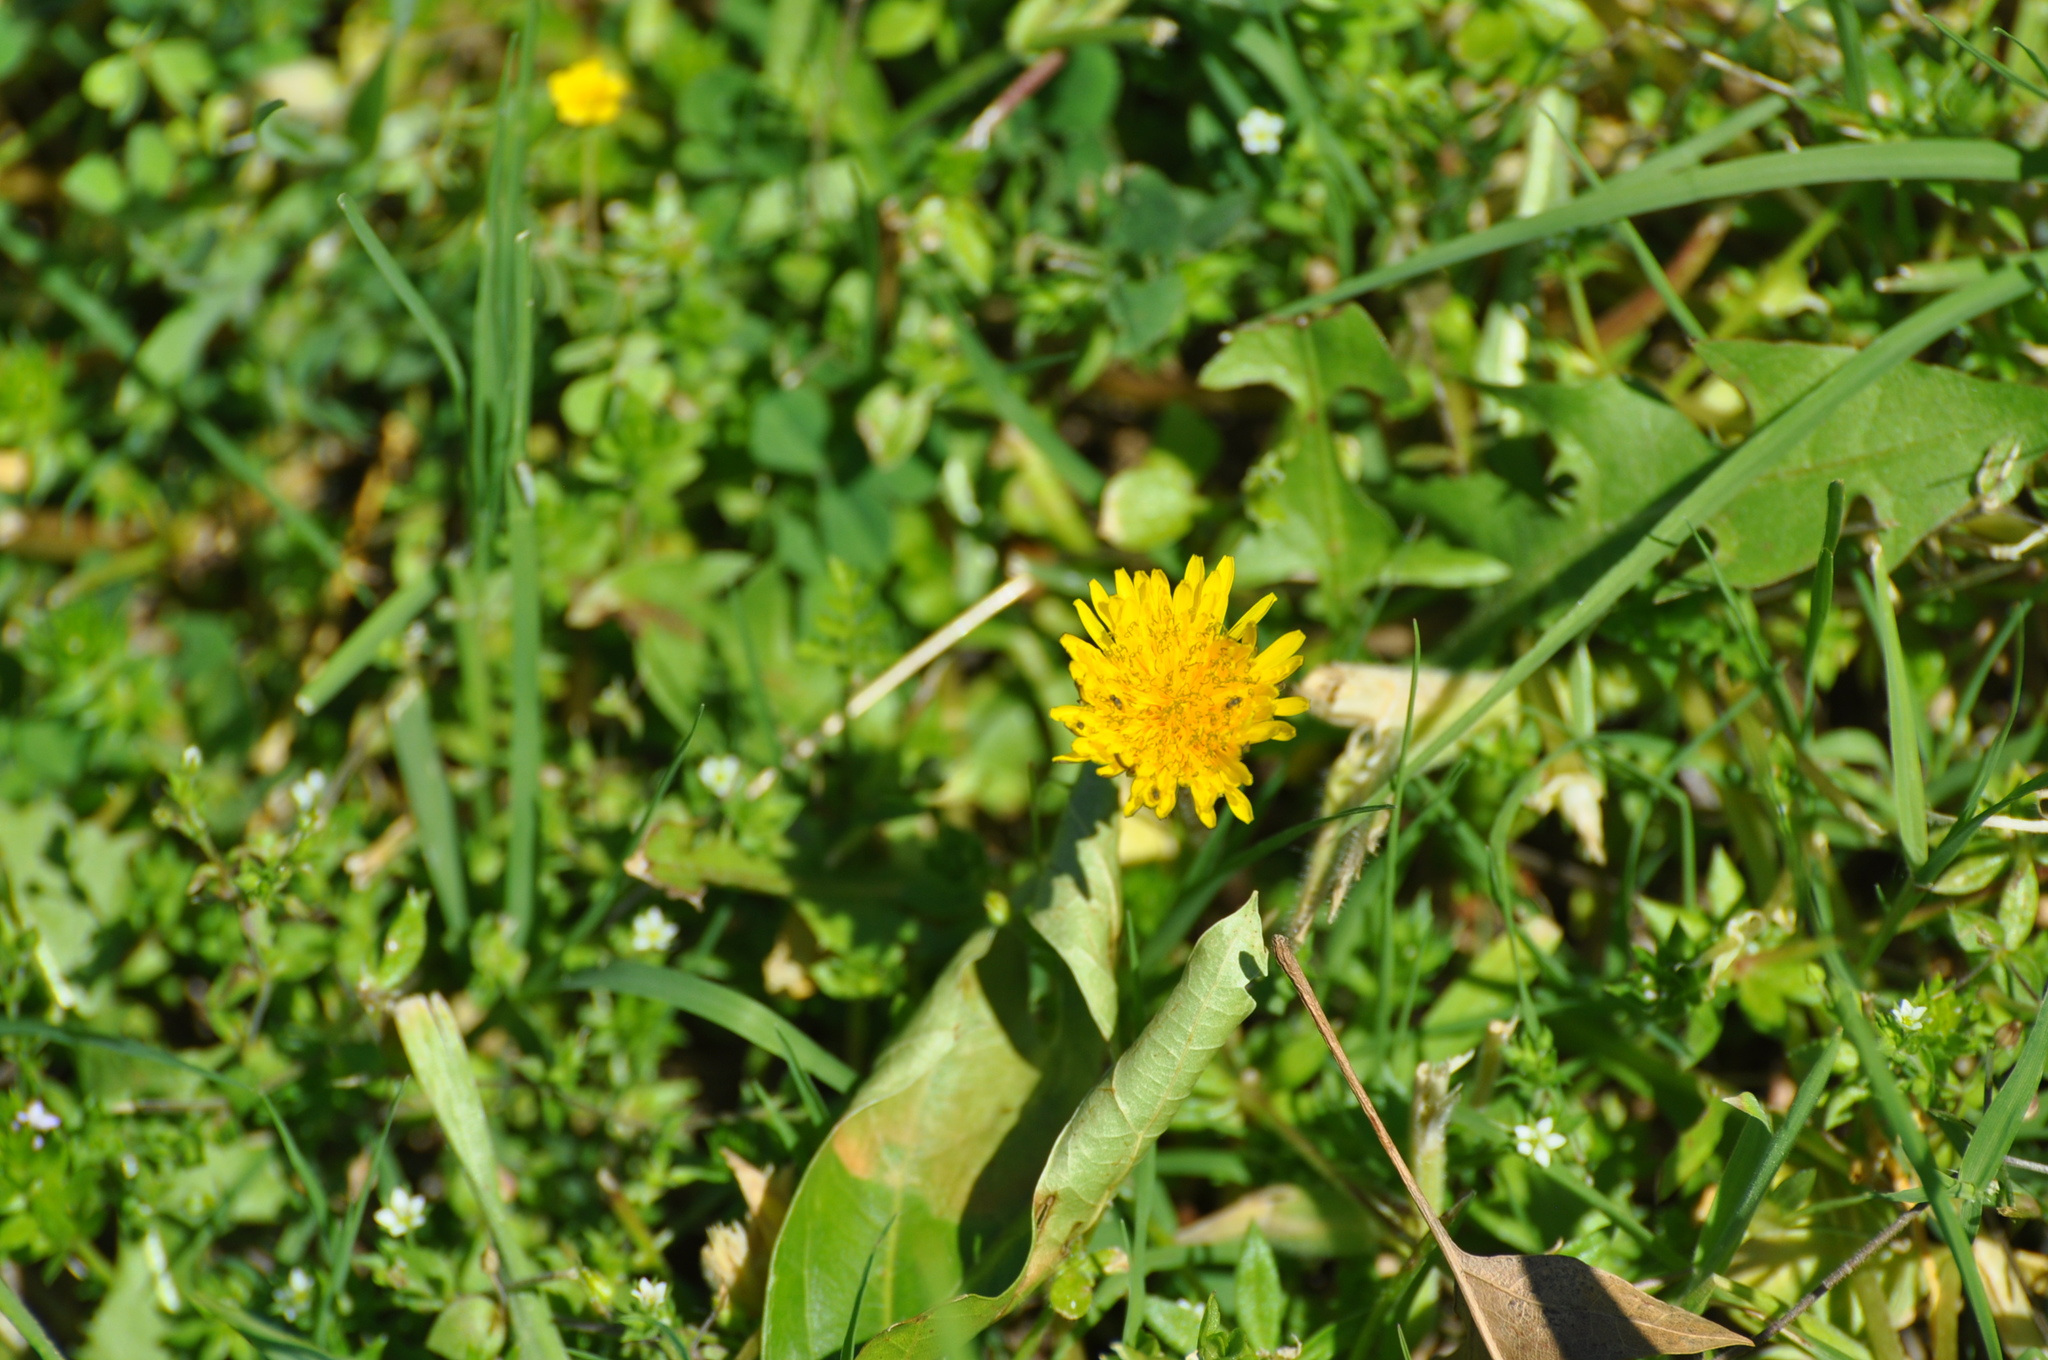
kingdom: Plantae
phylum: Tracheophyta
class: Magnoliopsida
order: Asterales
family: Asteraceae
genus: Taraxacum
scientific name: Taraxacum
